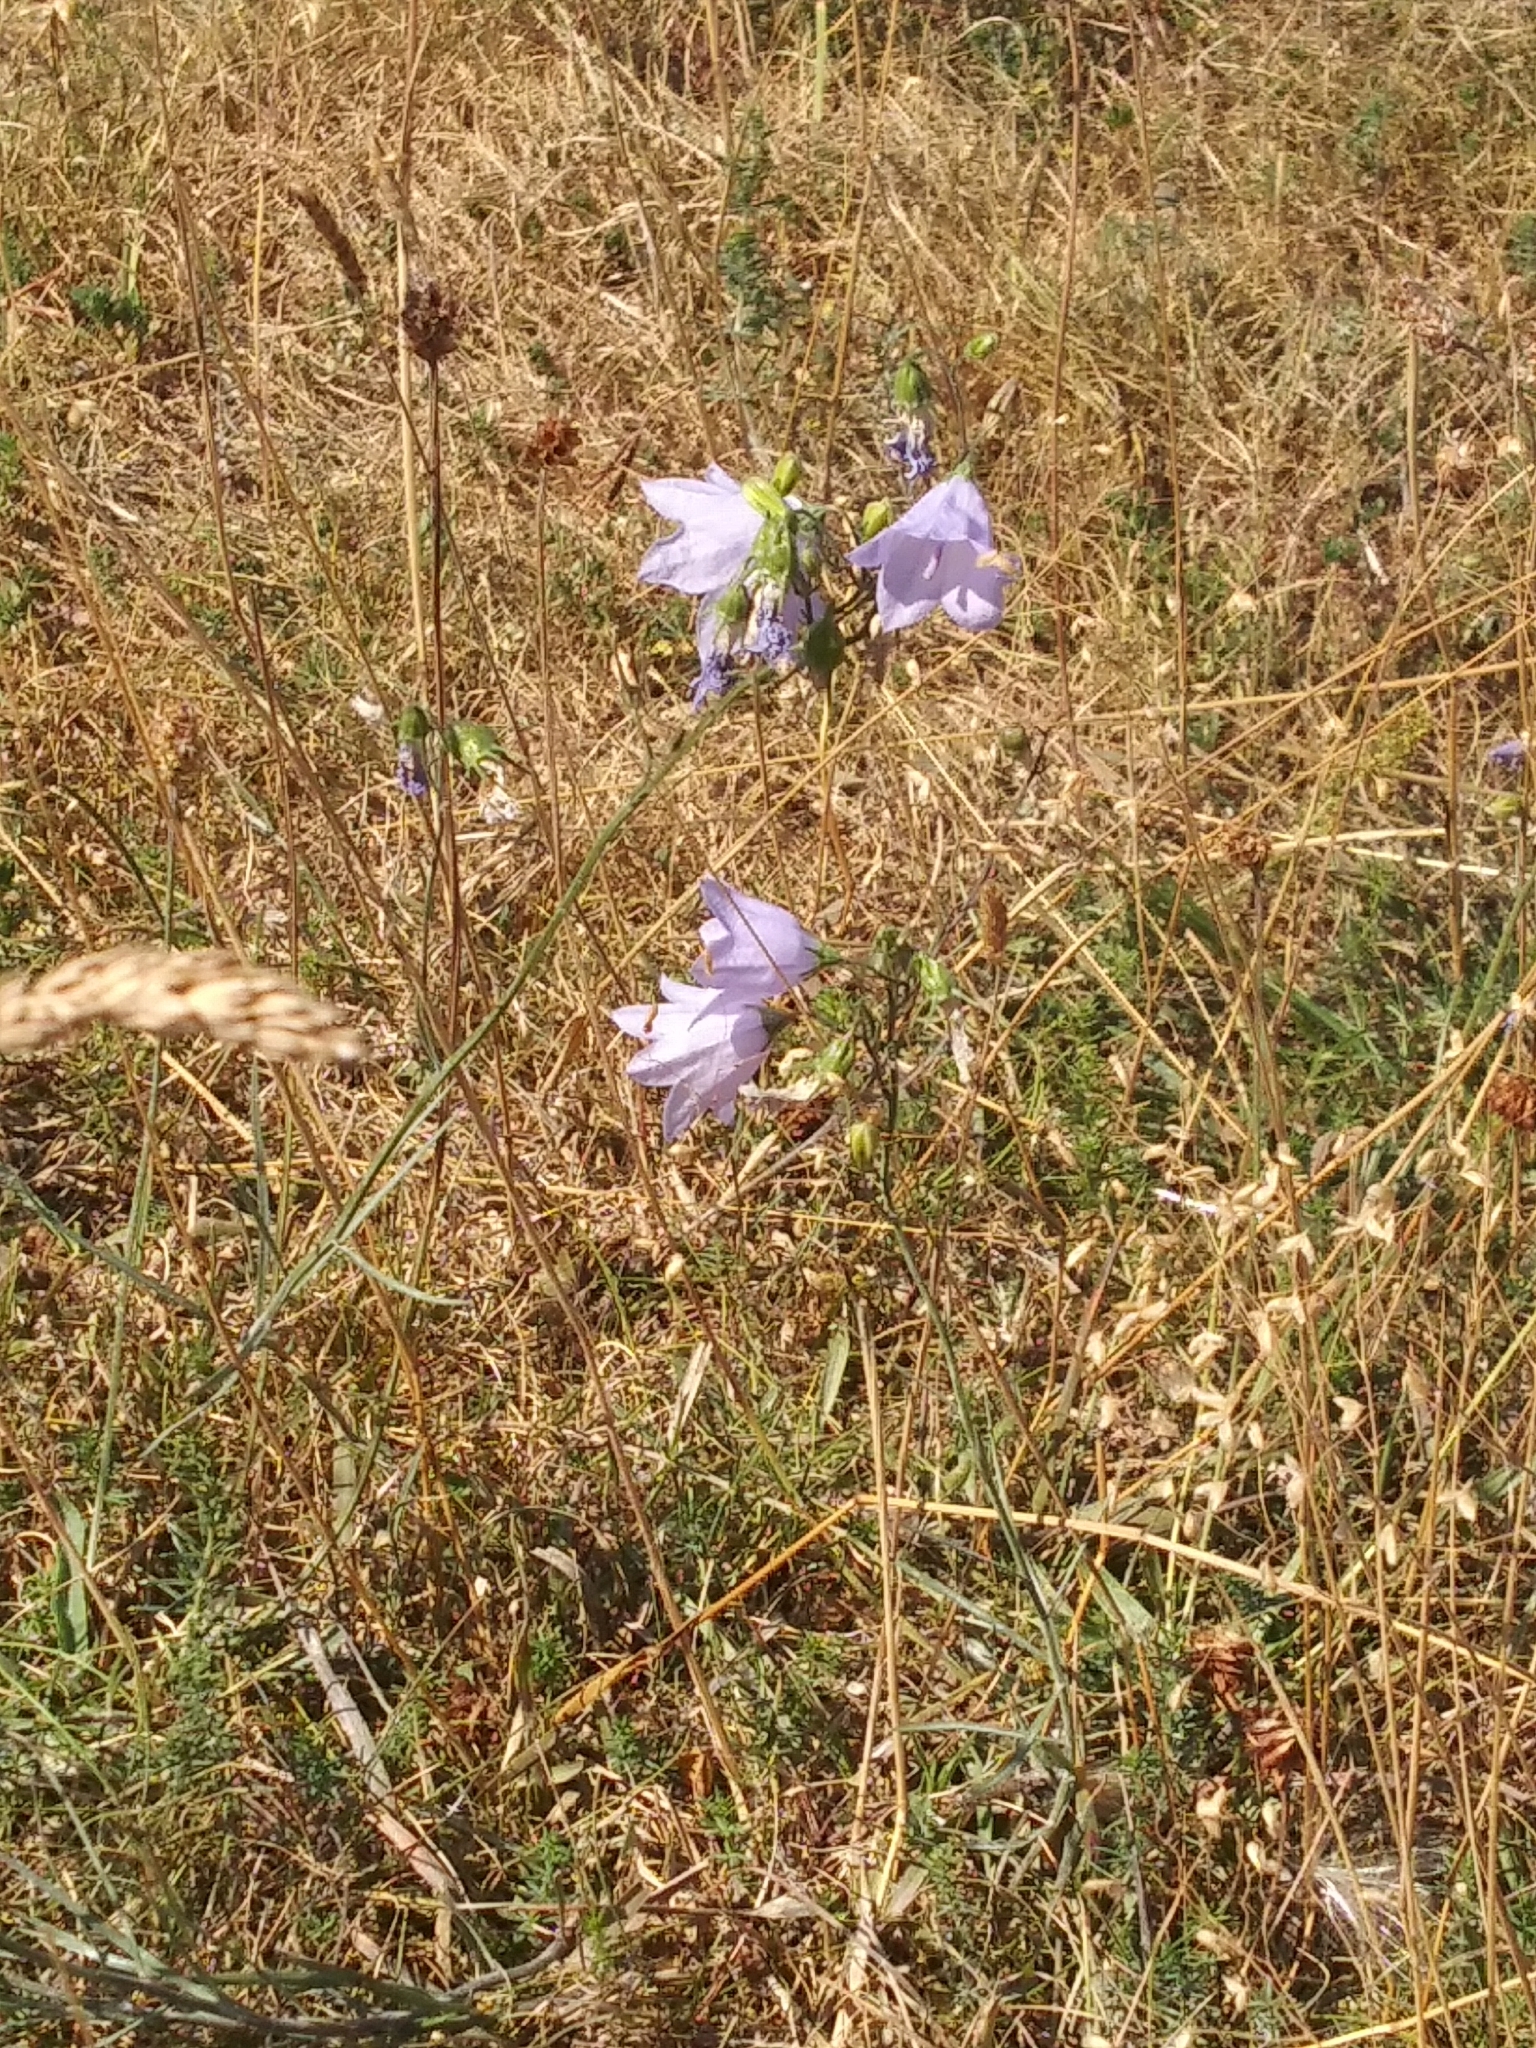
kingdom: Plantae
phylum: Tracheophyta
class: Magnoliopsida
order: Asterales
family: Campanulaceae
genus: Campanula
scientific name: Campanula rotundifolia
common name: Harebell
